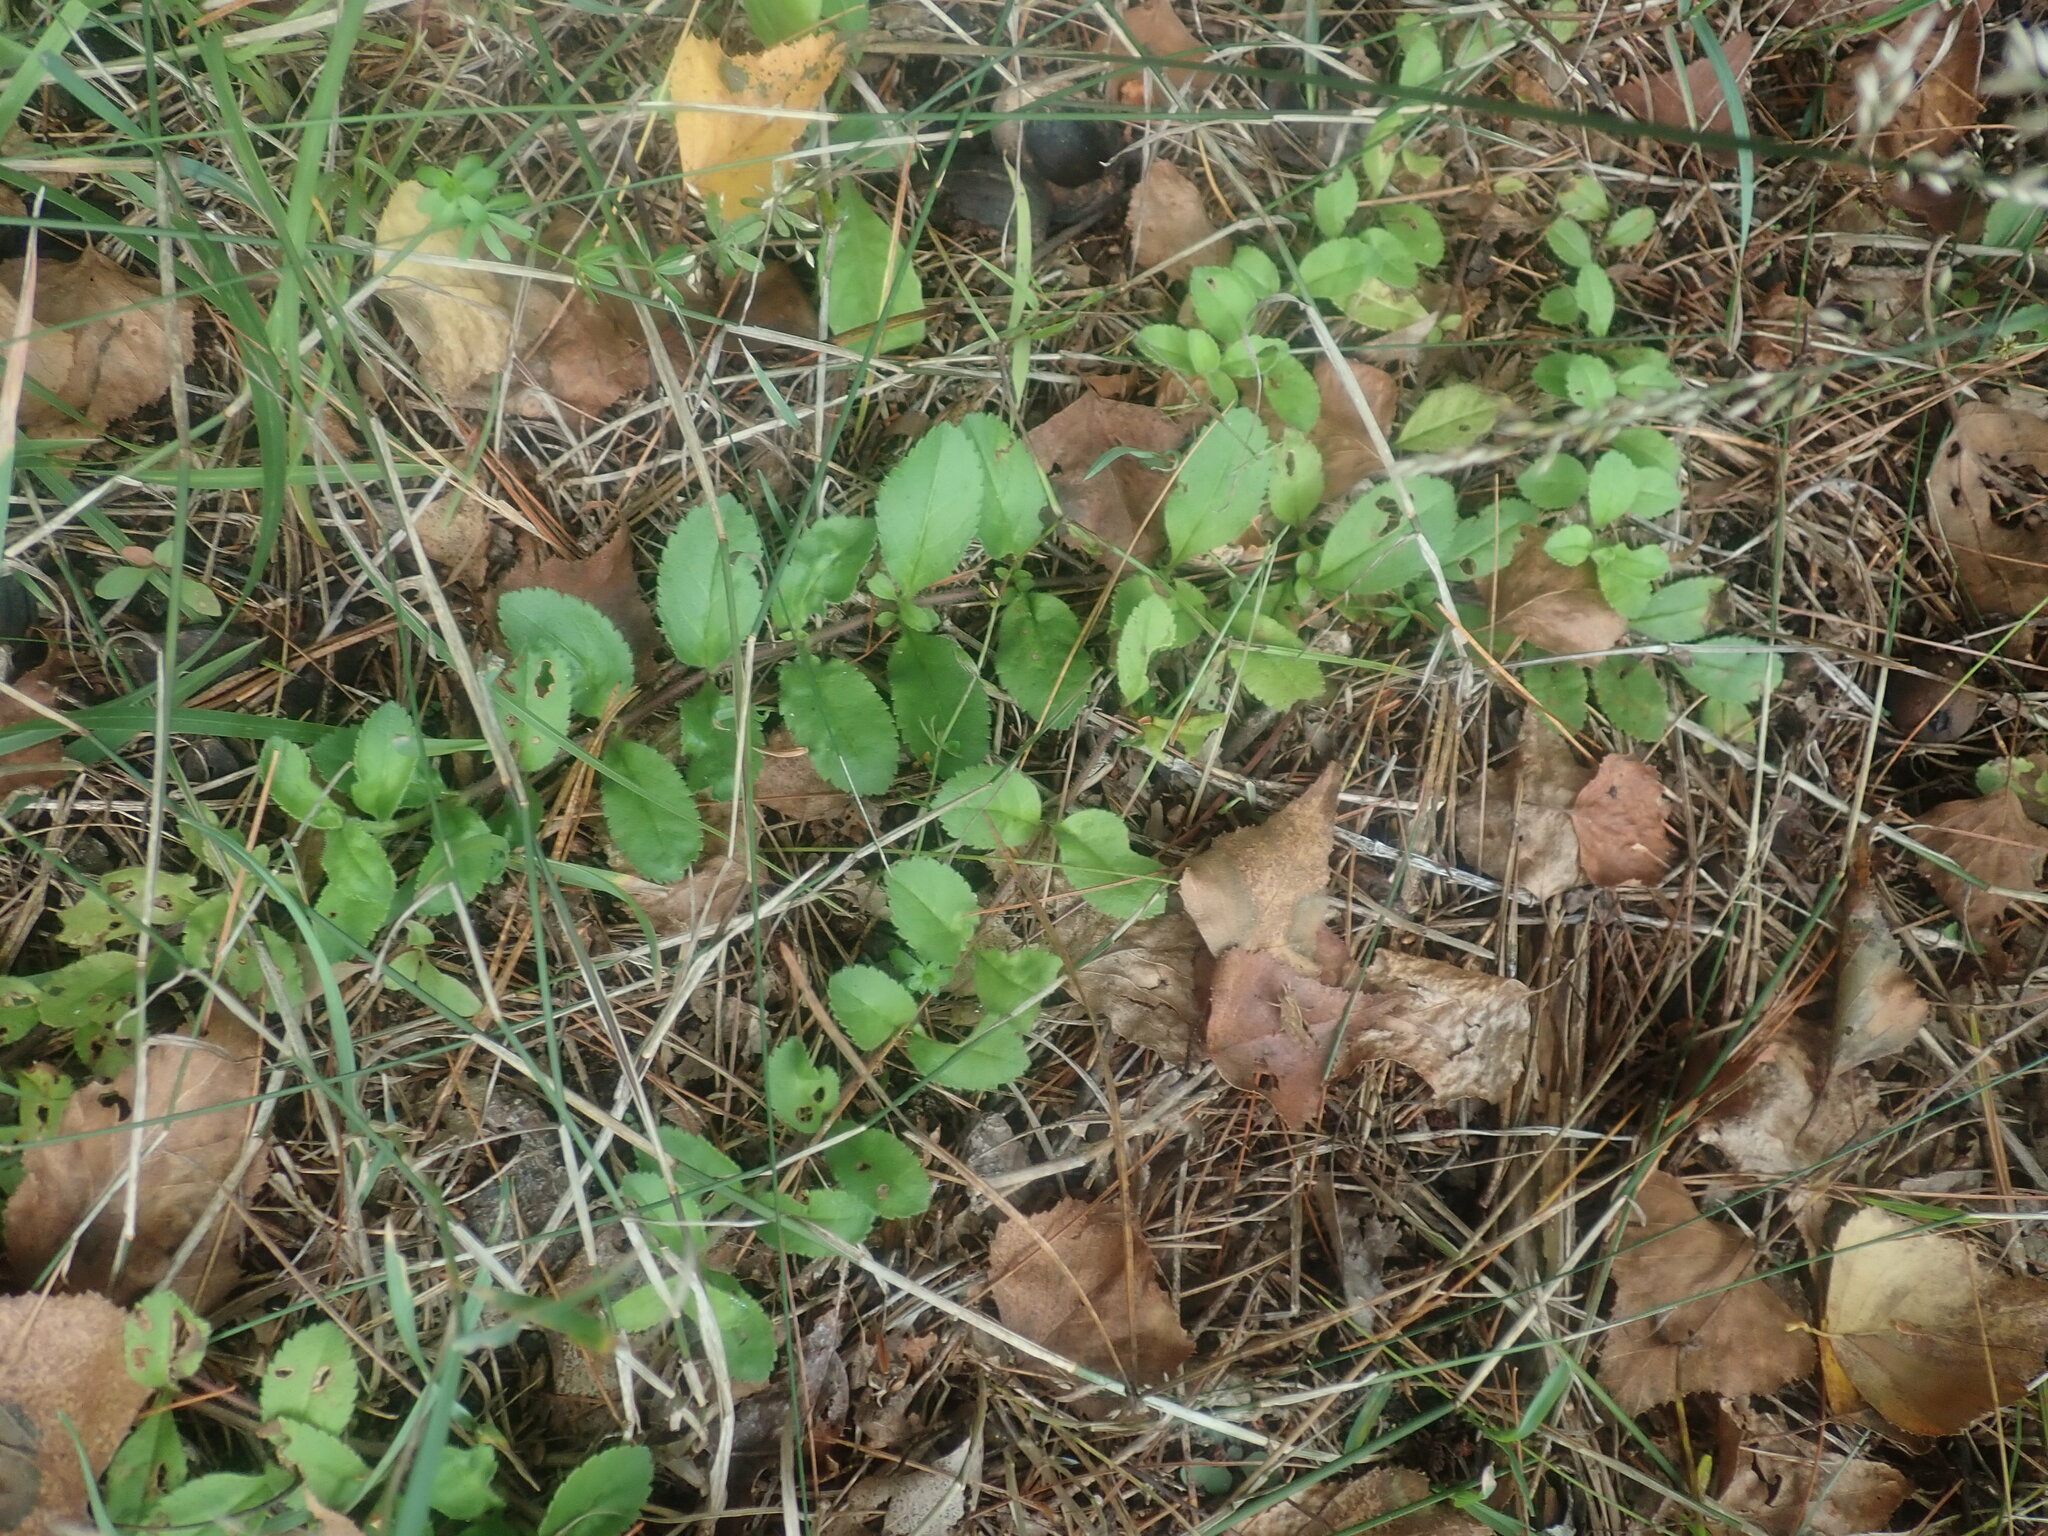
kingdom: Plantae
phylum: Tracheophyta
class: Magnoliopsida
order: Lamiales
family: Plantaginaceae
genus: Veronica
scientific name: Veronica officinalis
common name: Common speedwell
